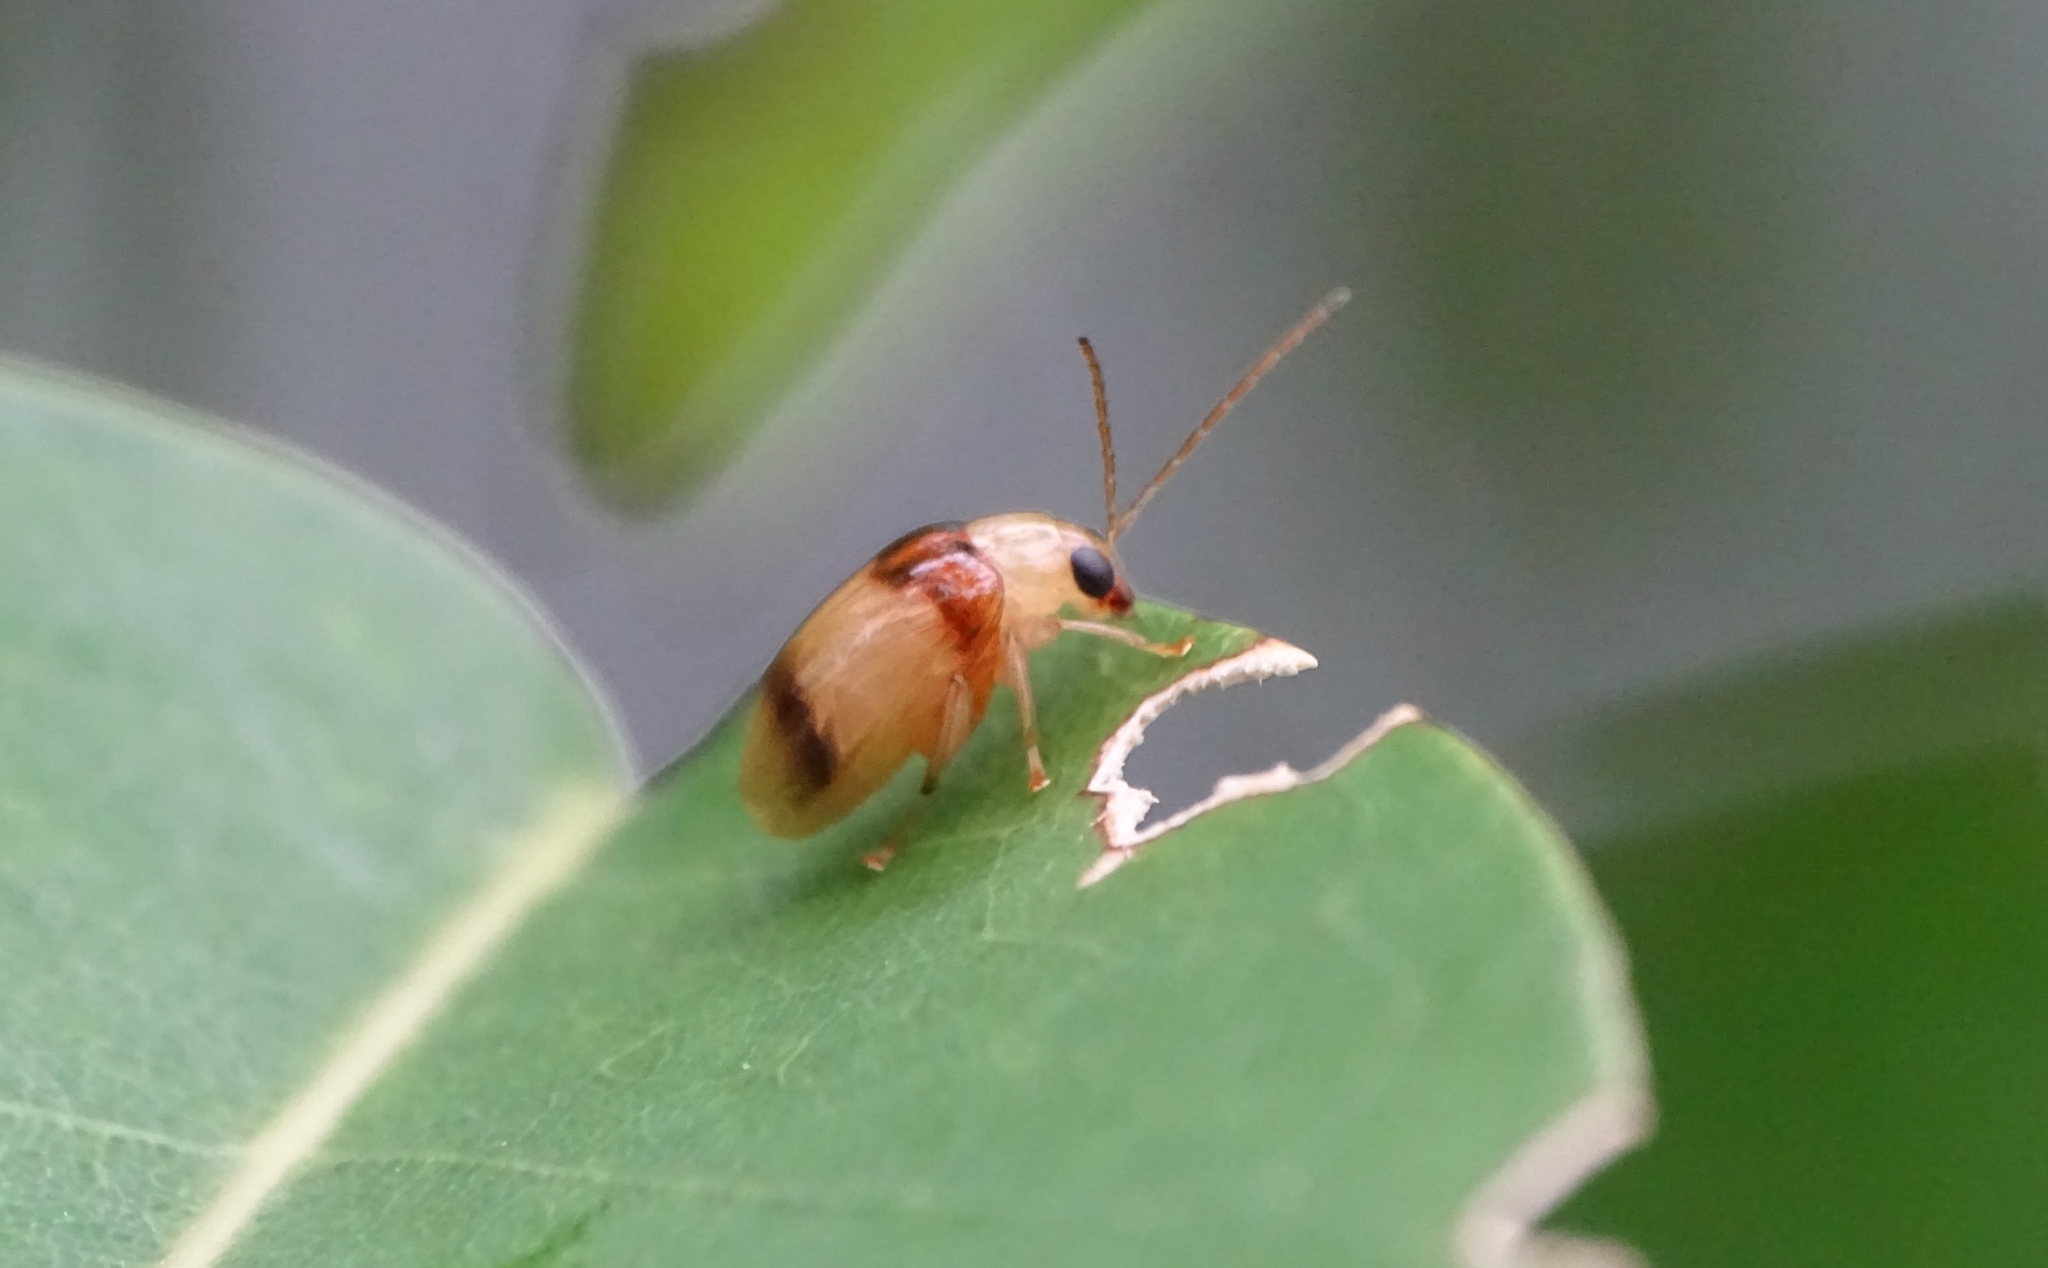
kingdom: Animalia
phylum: Arthropoda
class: Insecta
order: Coleoptera
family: Chrysomelidae
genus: Monolepta
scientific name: Monolepta
